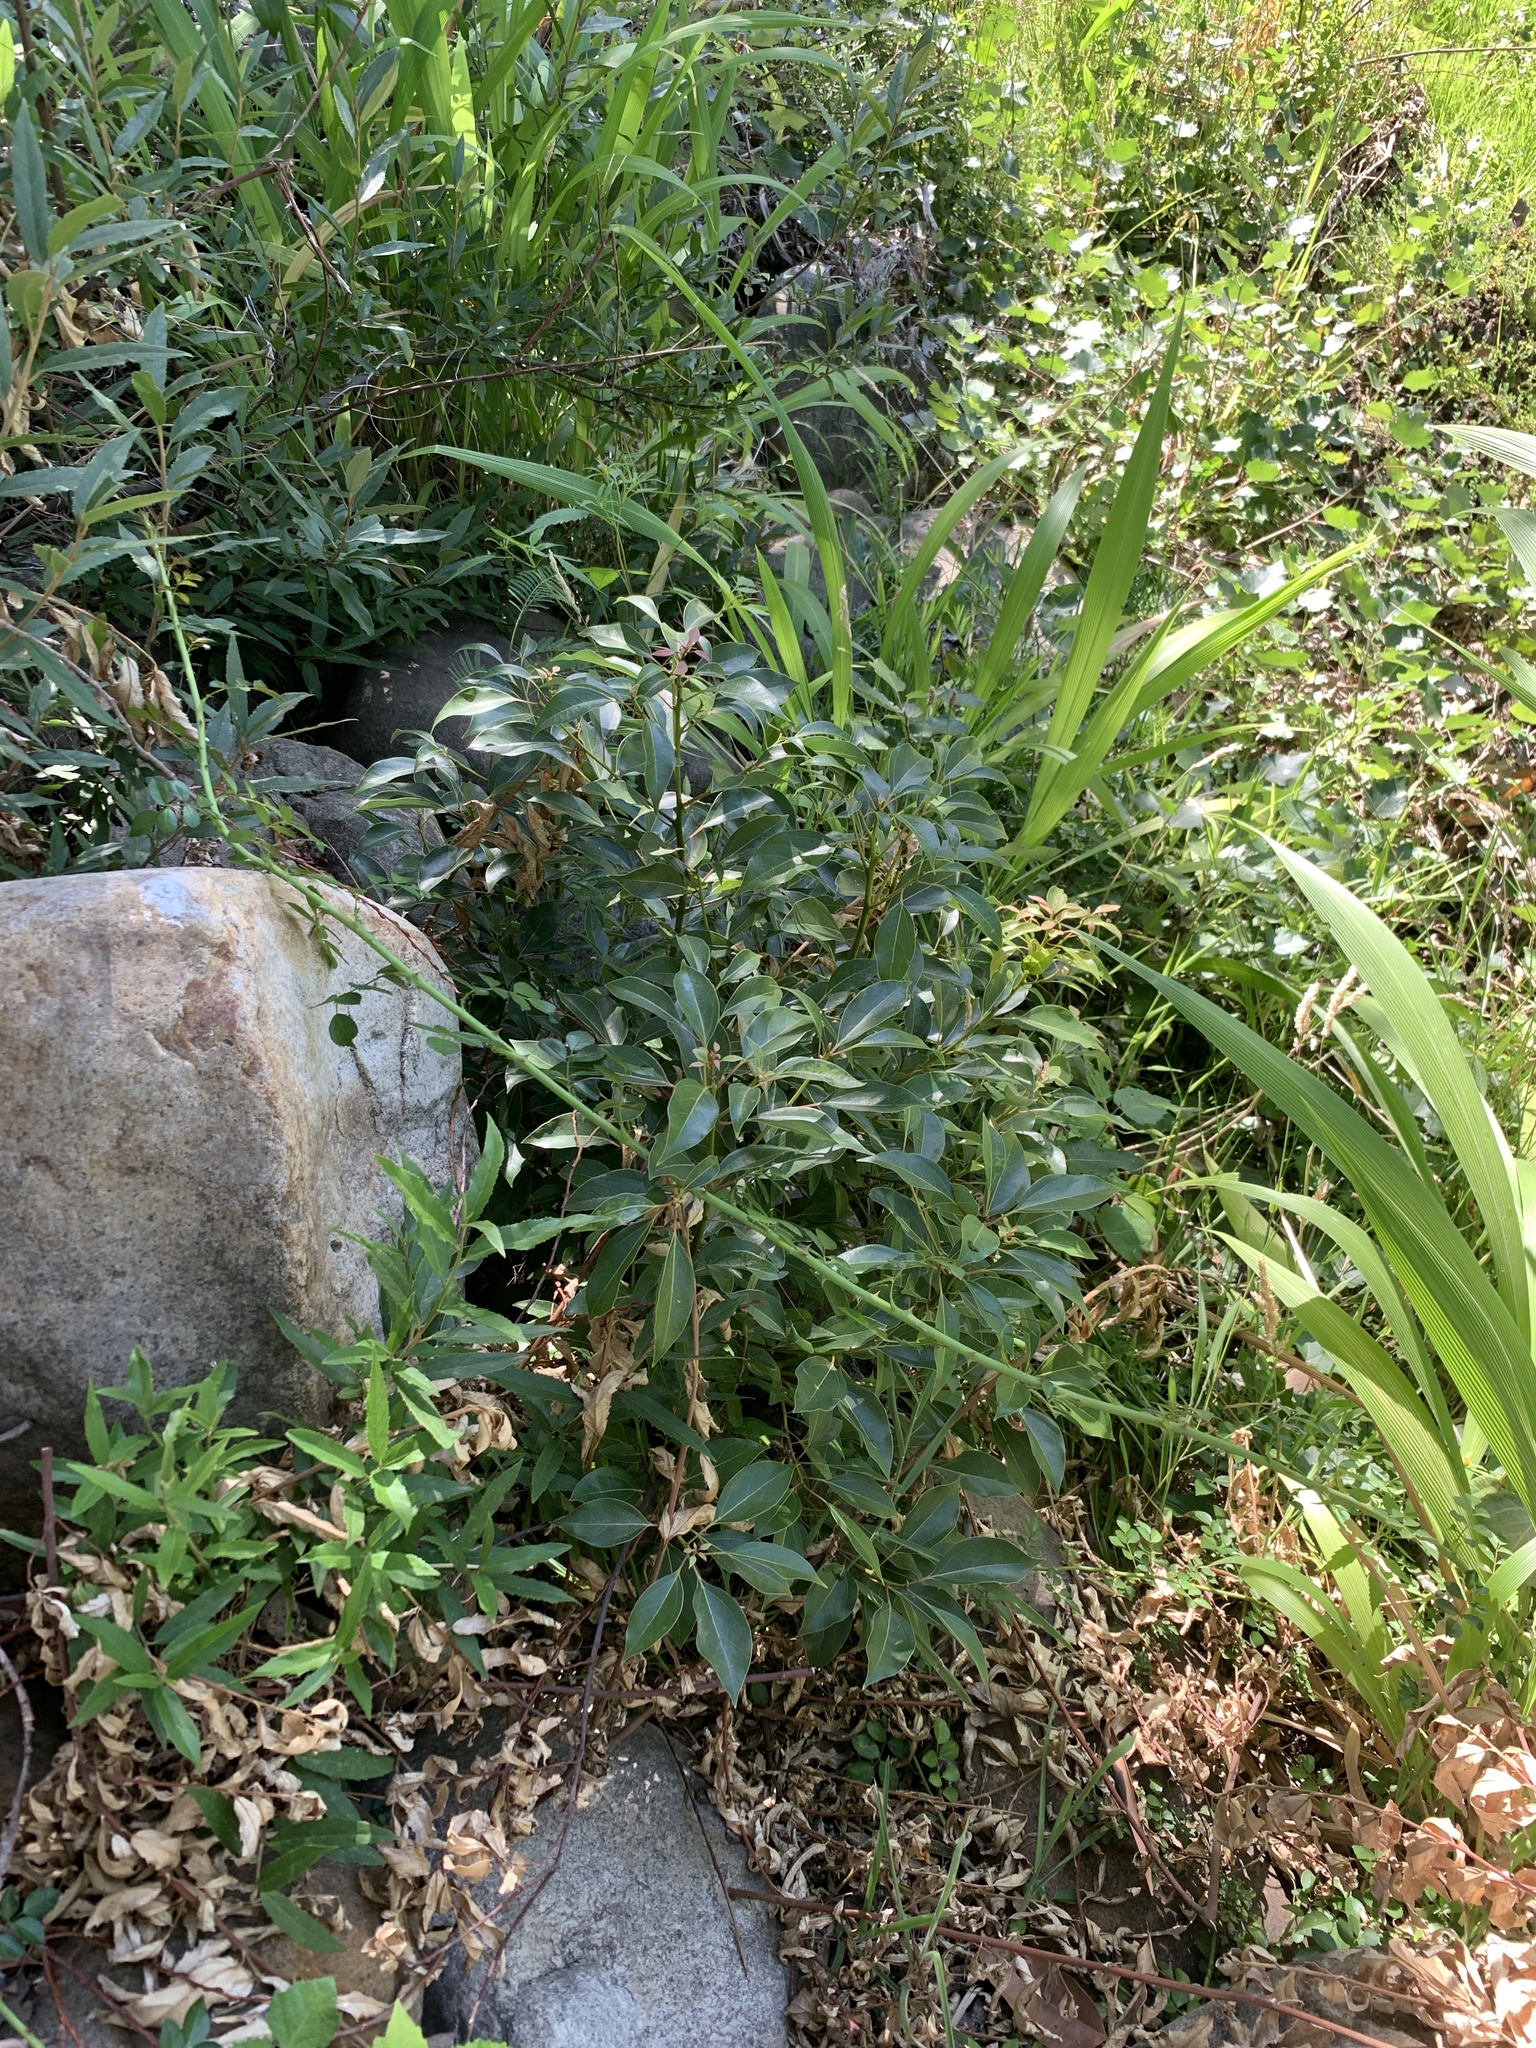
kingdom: Plantae
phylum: Tracheophyta
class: Magnoliopsida
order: Laurales
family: Lauraceae
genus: Cinnamomum
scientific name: Cinnamomum camphora
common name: Camphortree
